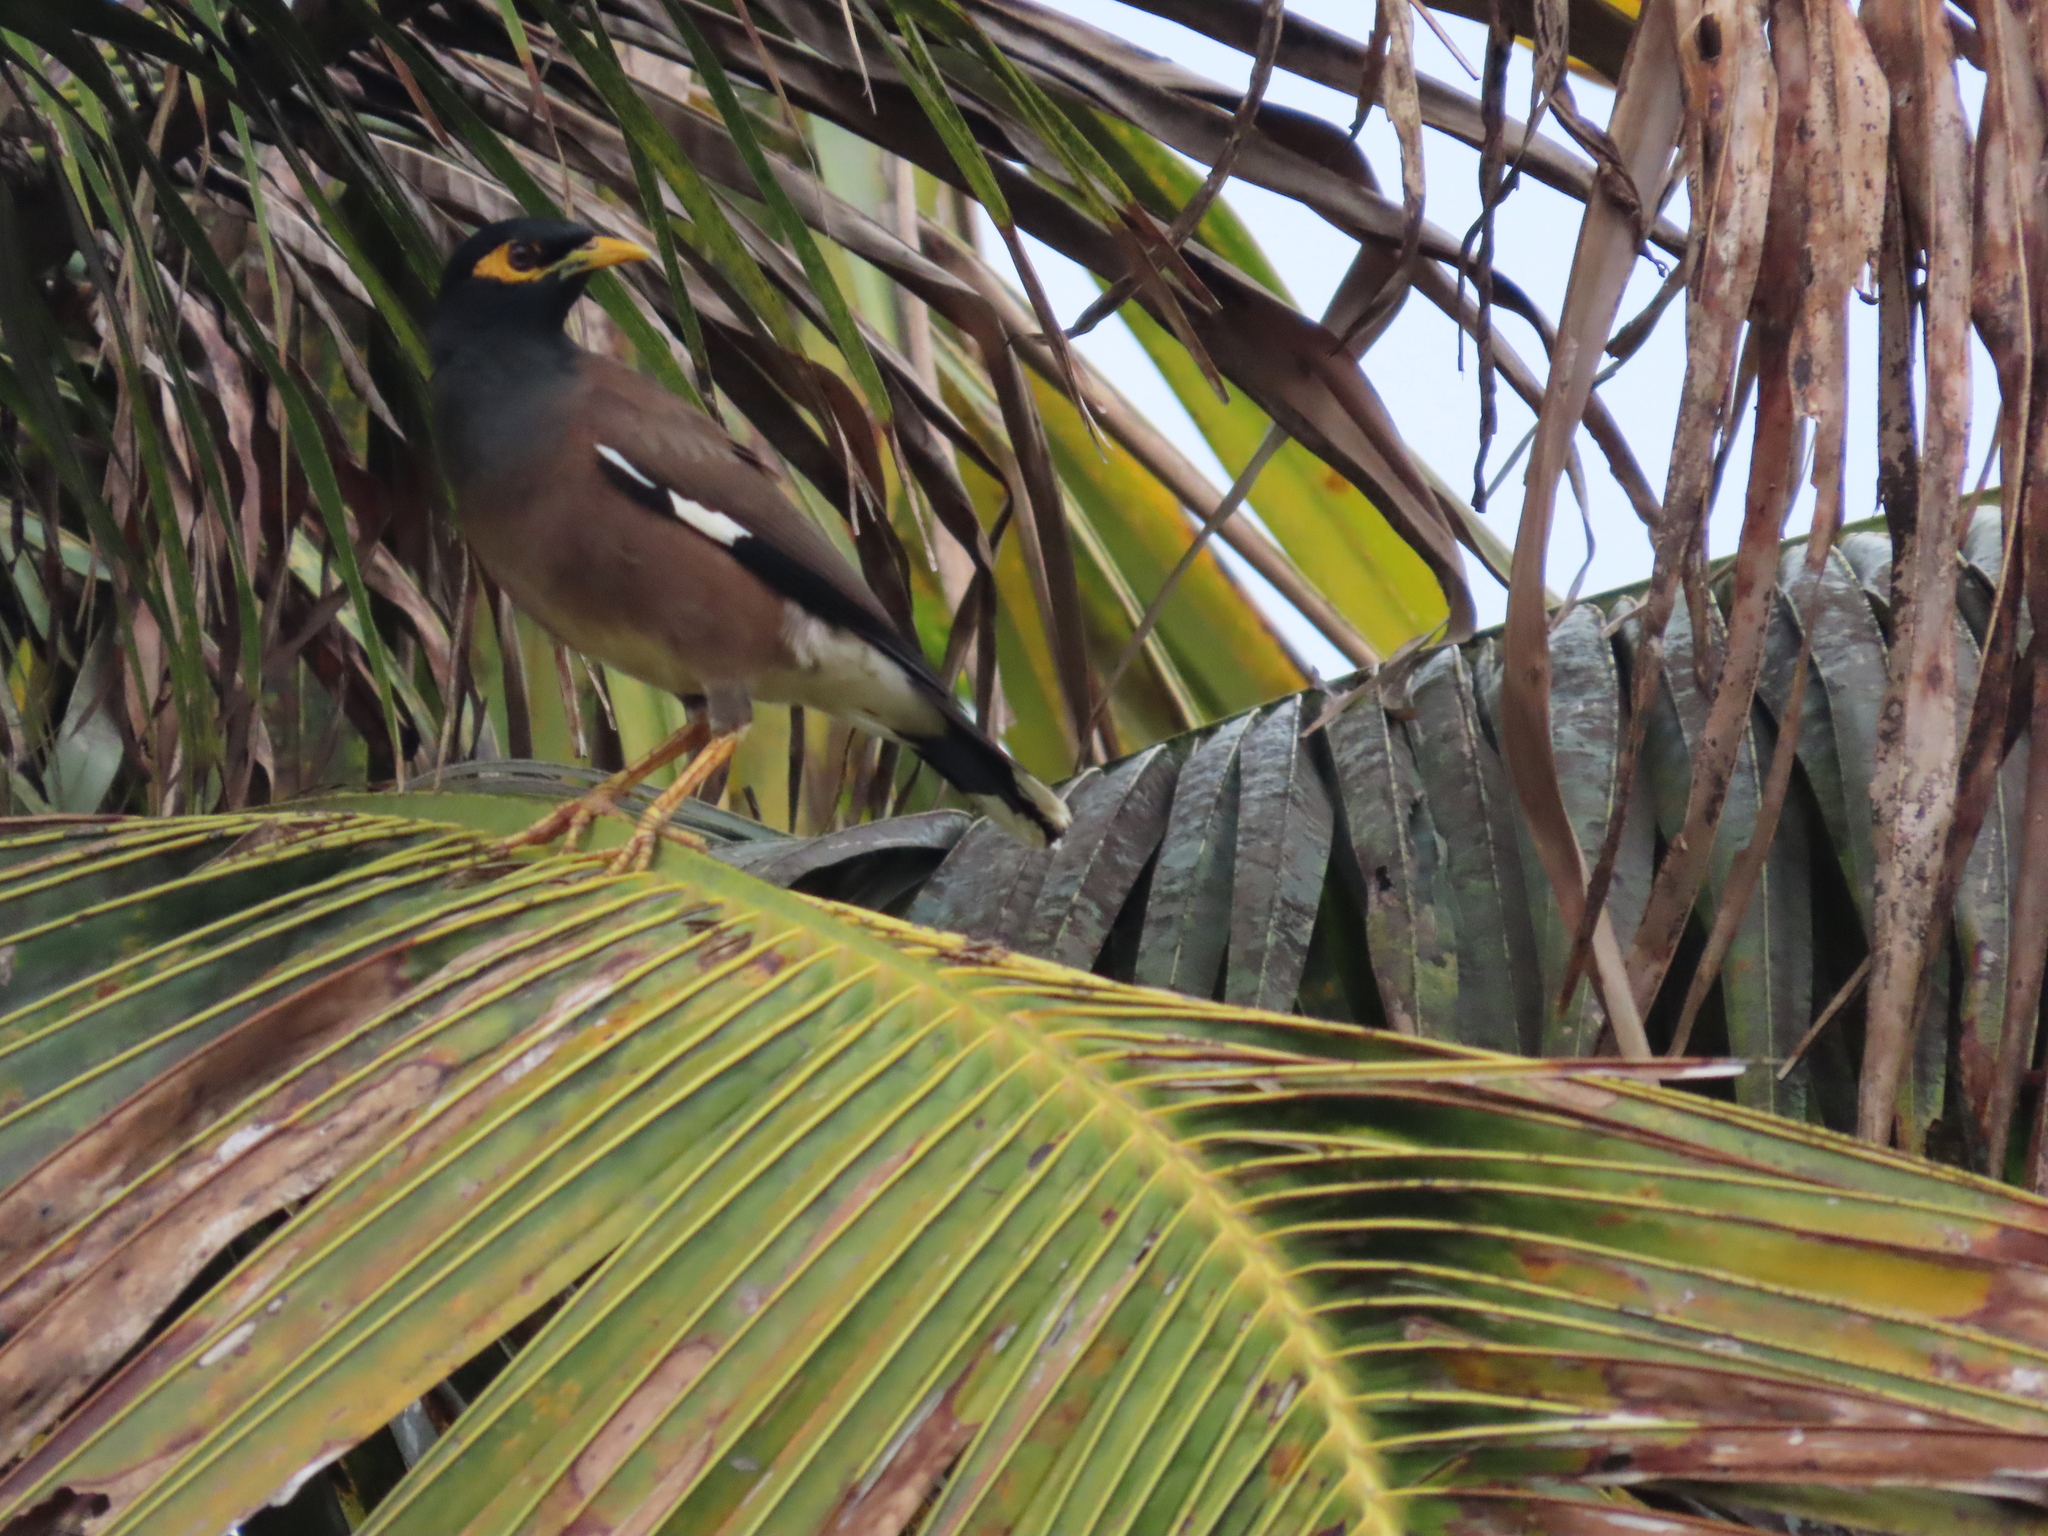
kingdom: Animalia
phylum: Chordata
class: Aves
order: Passeriformes
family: Sturnidae
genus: Acridotheres
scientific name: Acridotheres tristis
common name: Common myna
